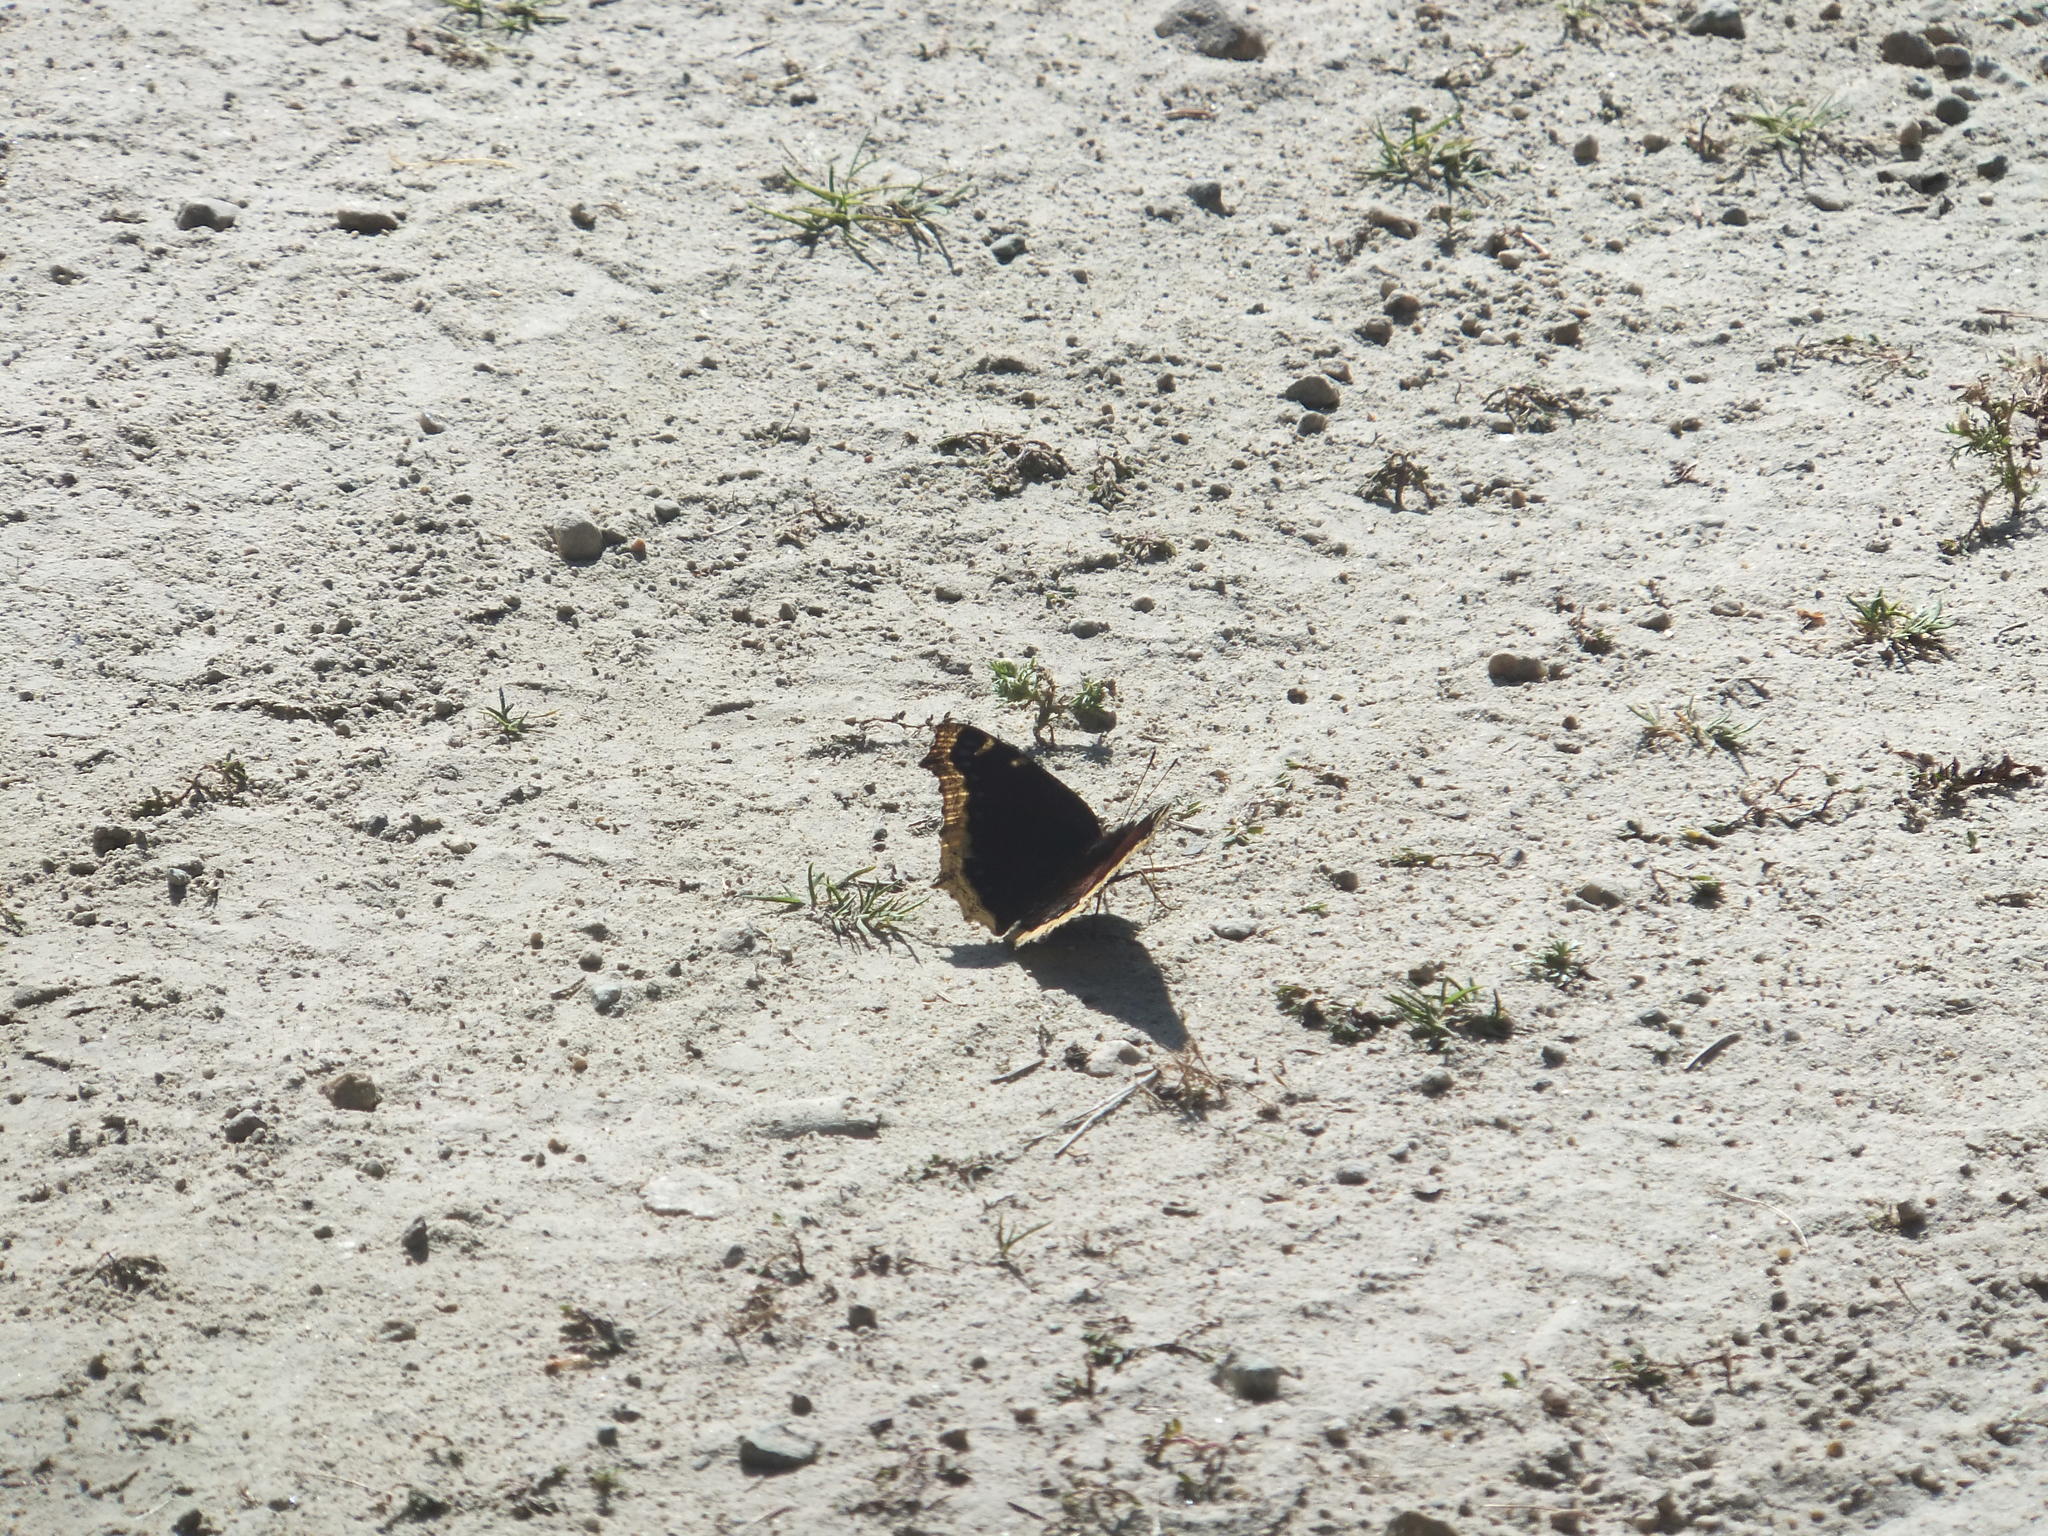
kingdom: Animalia
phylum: Arthropoda
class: Insecta
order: Lepidoptera
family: Nymphalidae
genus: Nymphalis
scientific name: Nymphalis antiopa
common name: Camberwell beauty
